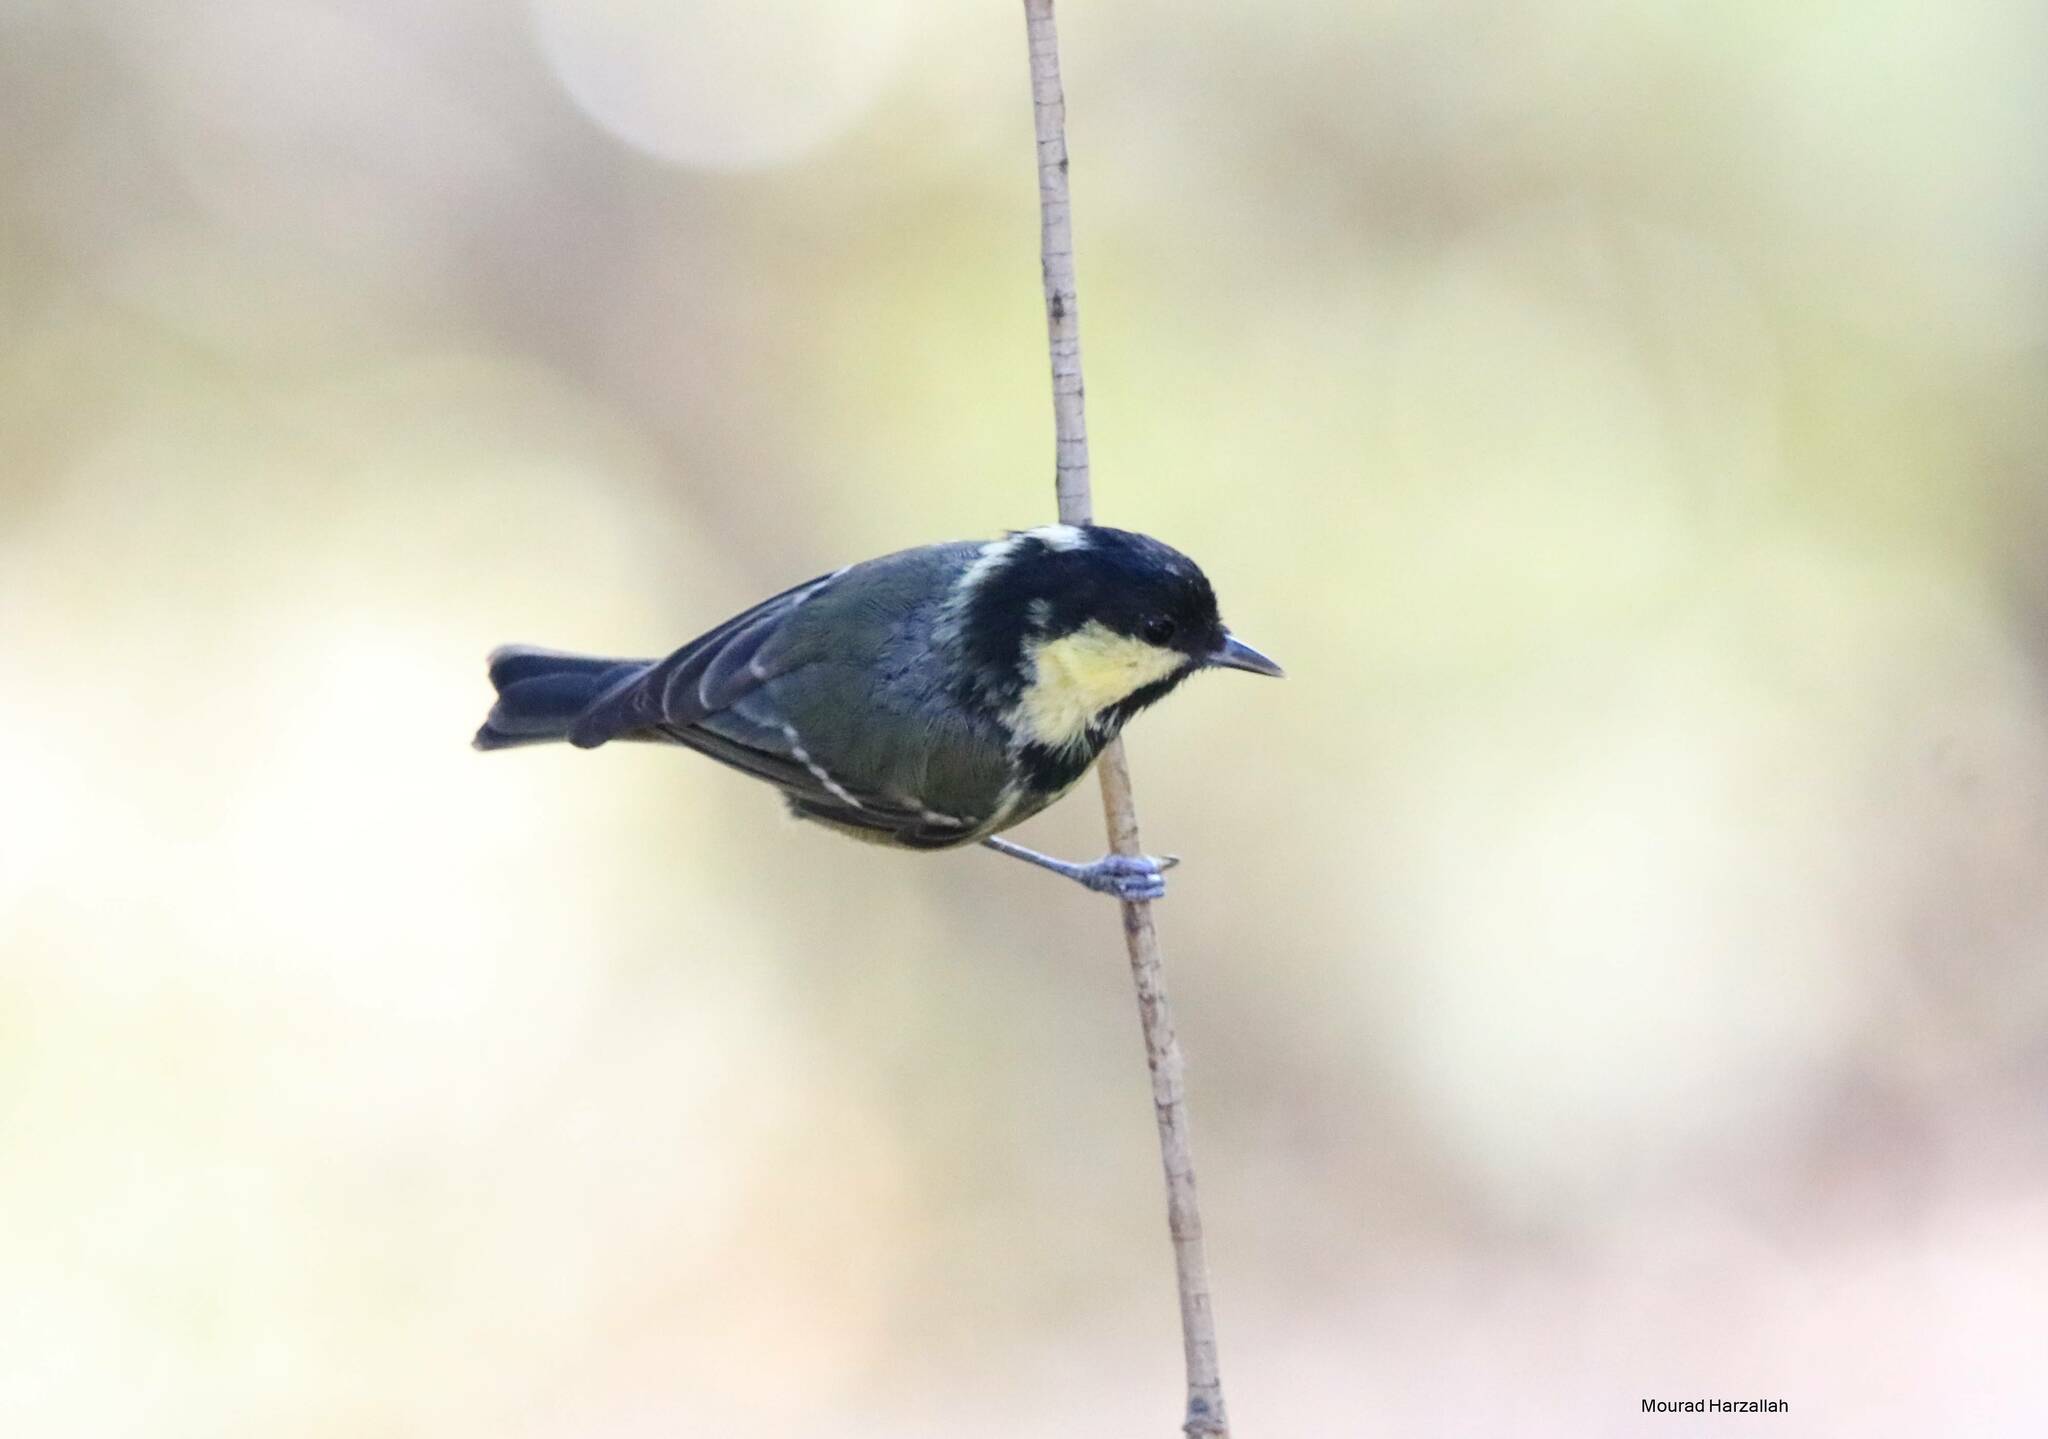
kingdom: Animalia
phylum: Chordata
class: Aves
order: Passeriformes
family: Paridae
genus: Periparus
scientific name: Periparus ater
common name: Coal tit
